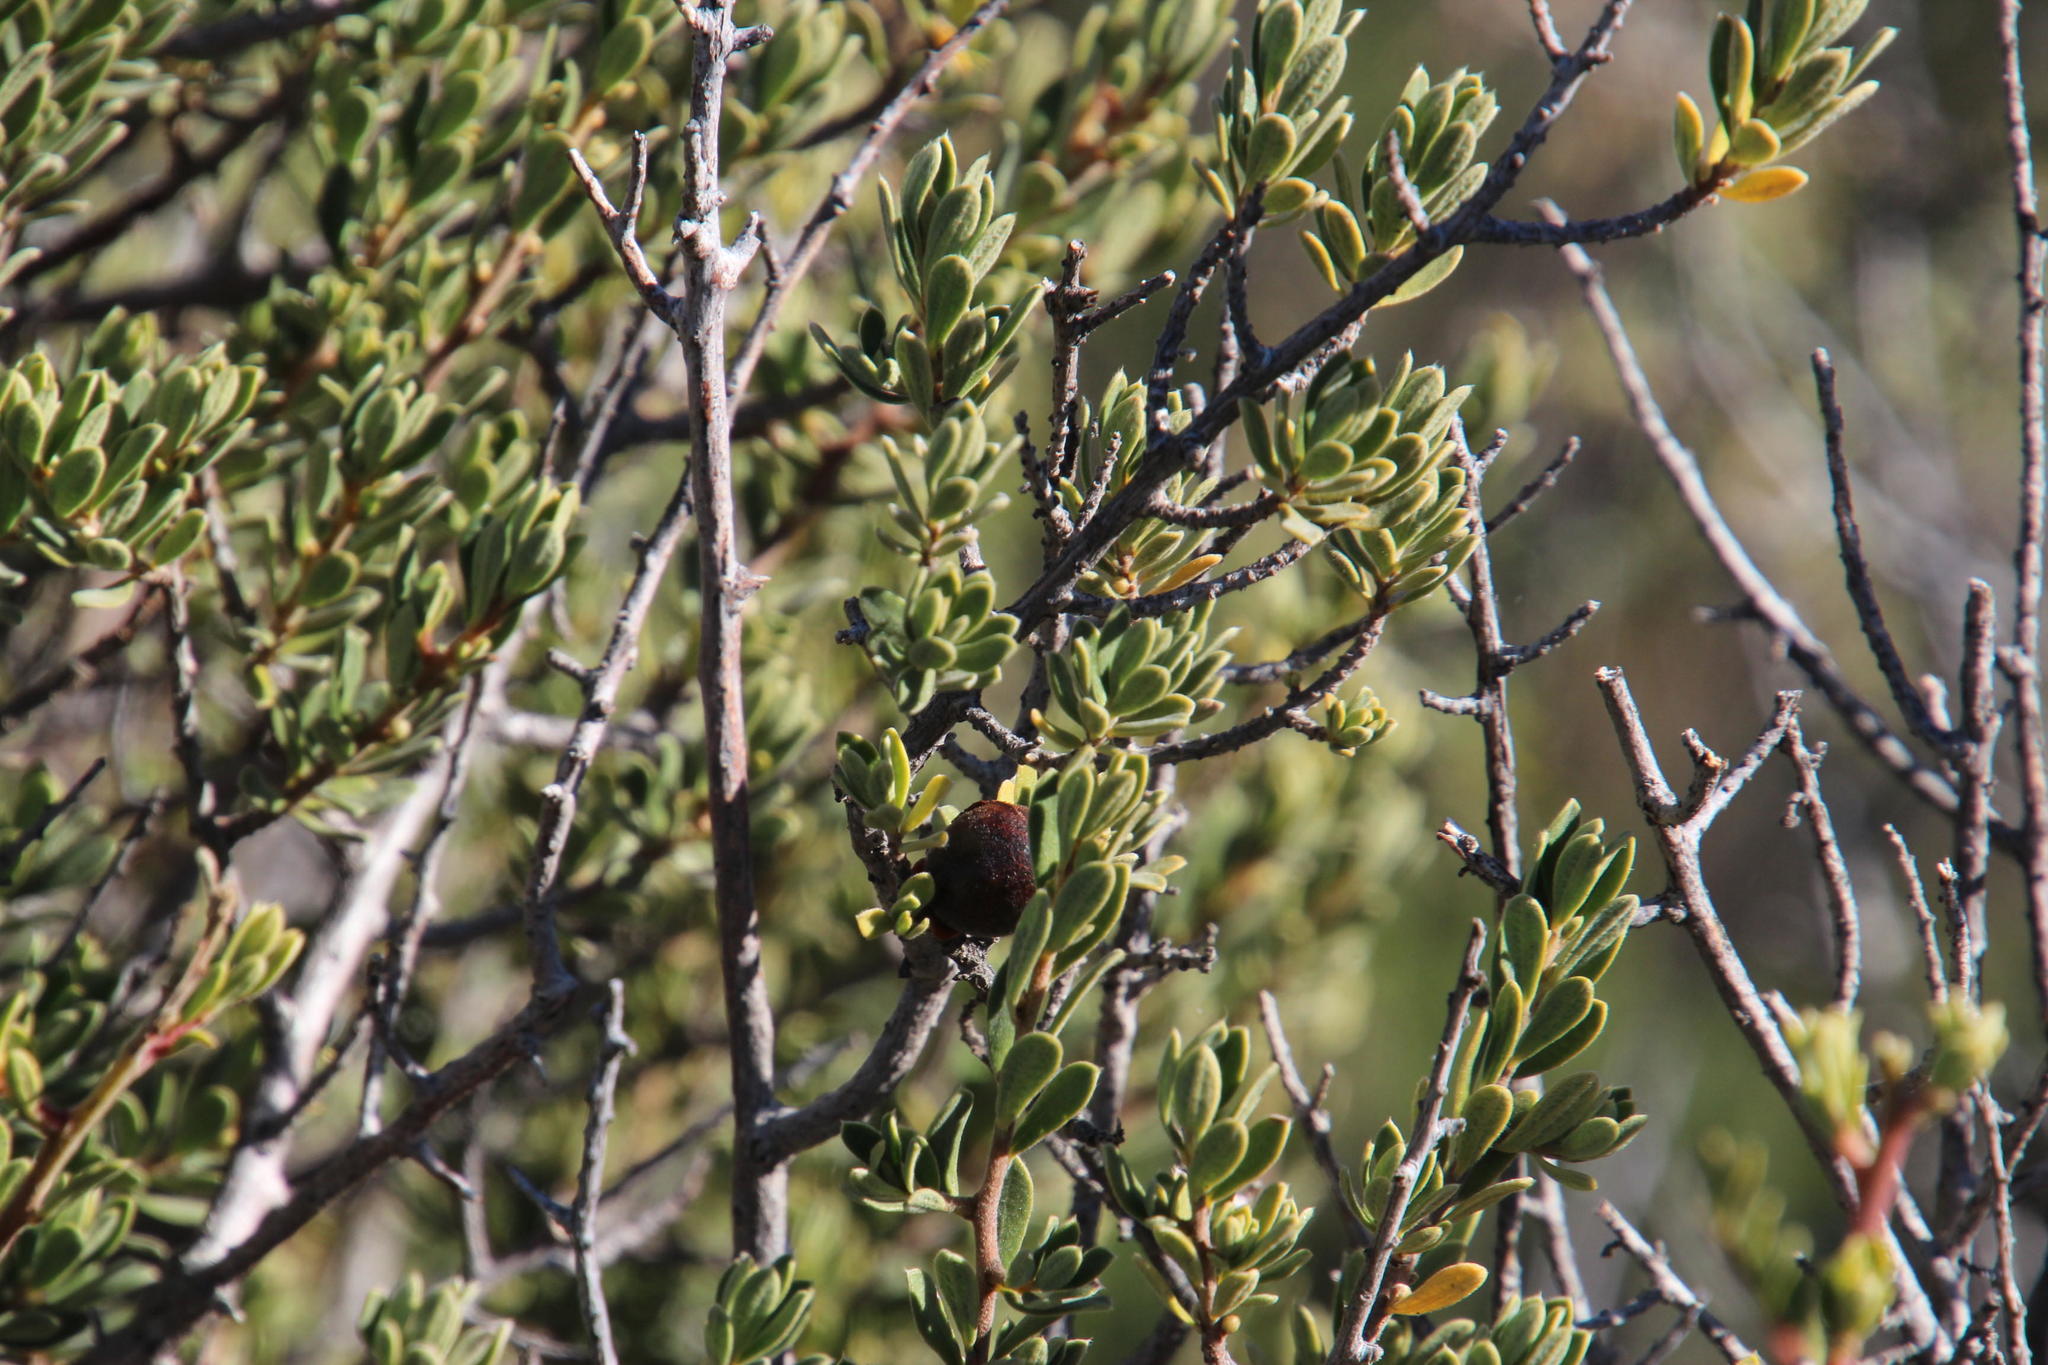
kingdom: Plantae
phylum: Tracheophyta
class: Magnoliopsida
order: Ericales
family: Ebenaceae
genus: Diospyros
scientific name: Diospyros pubescens
